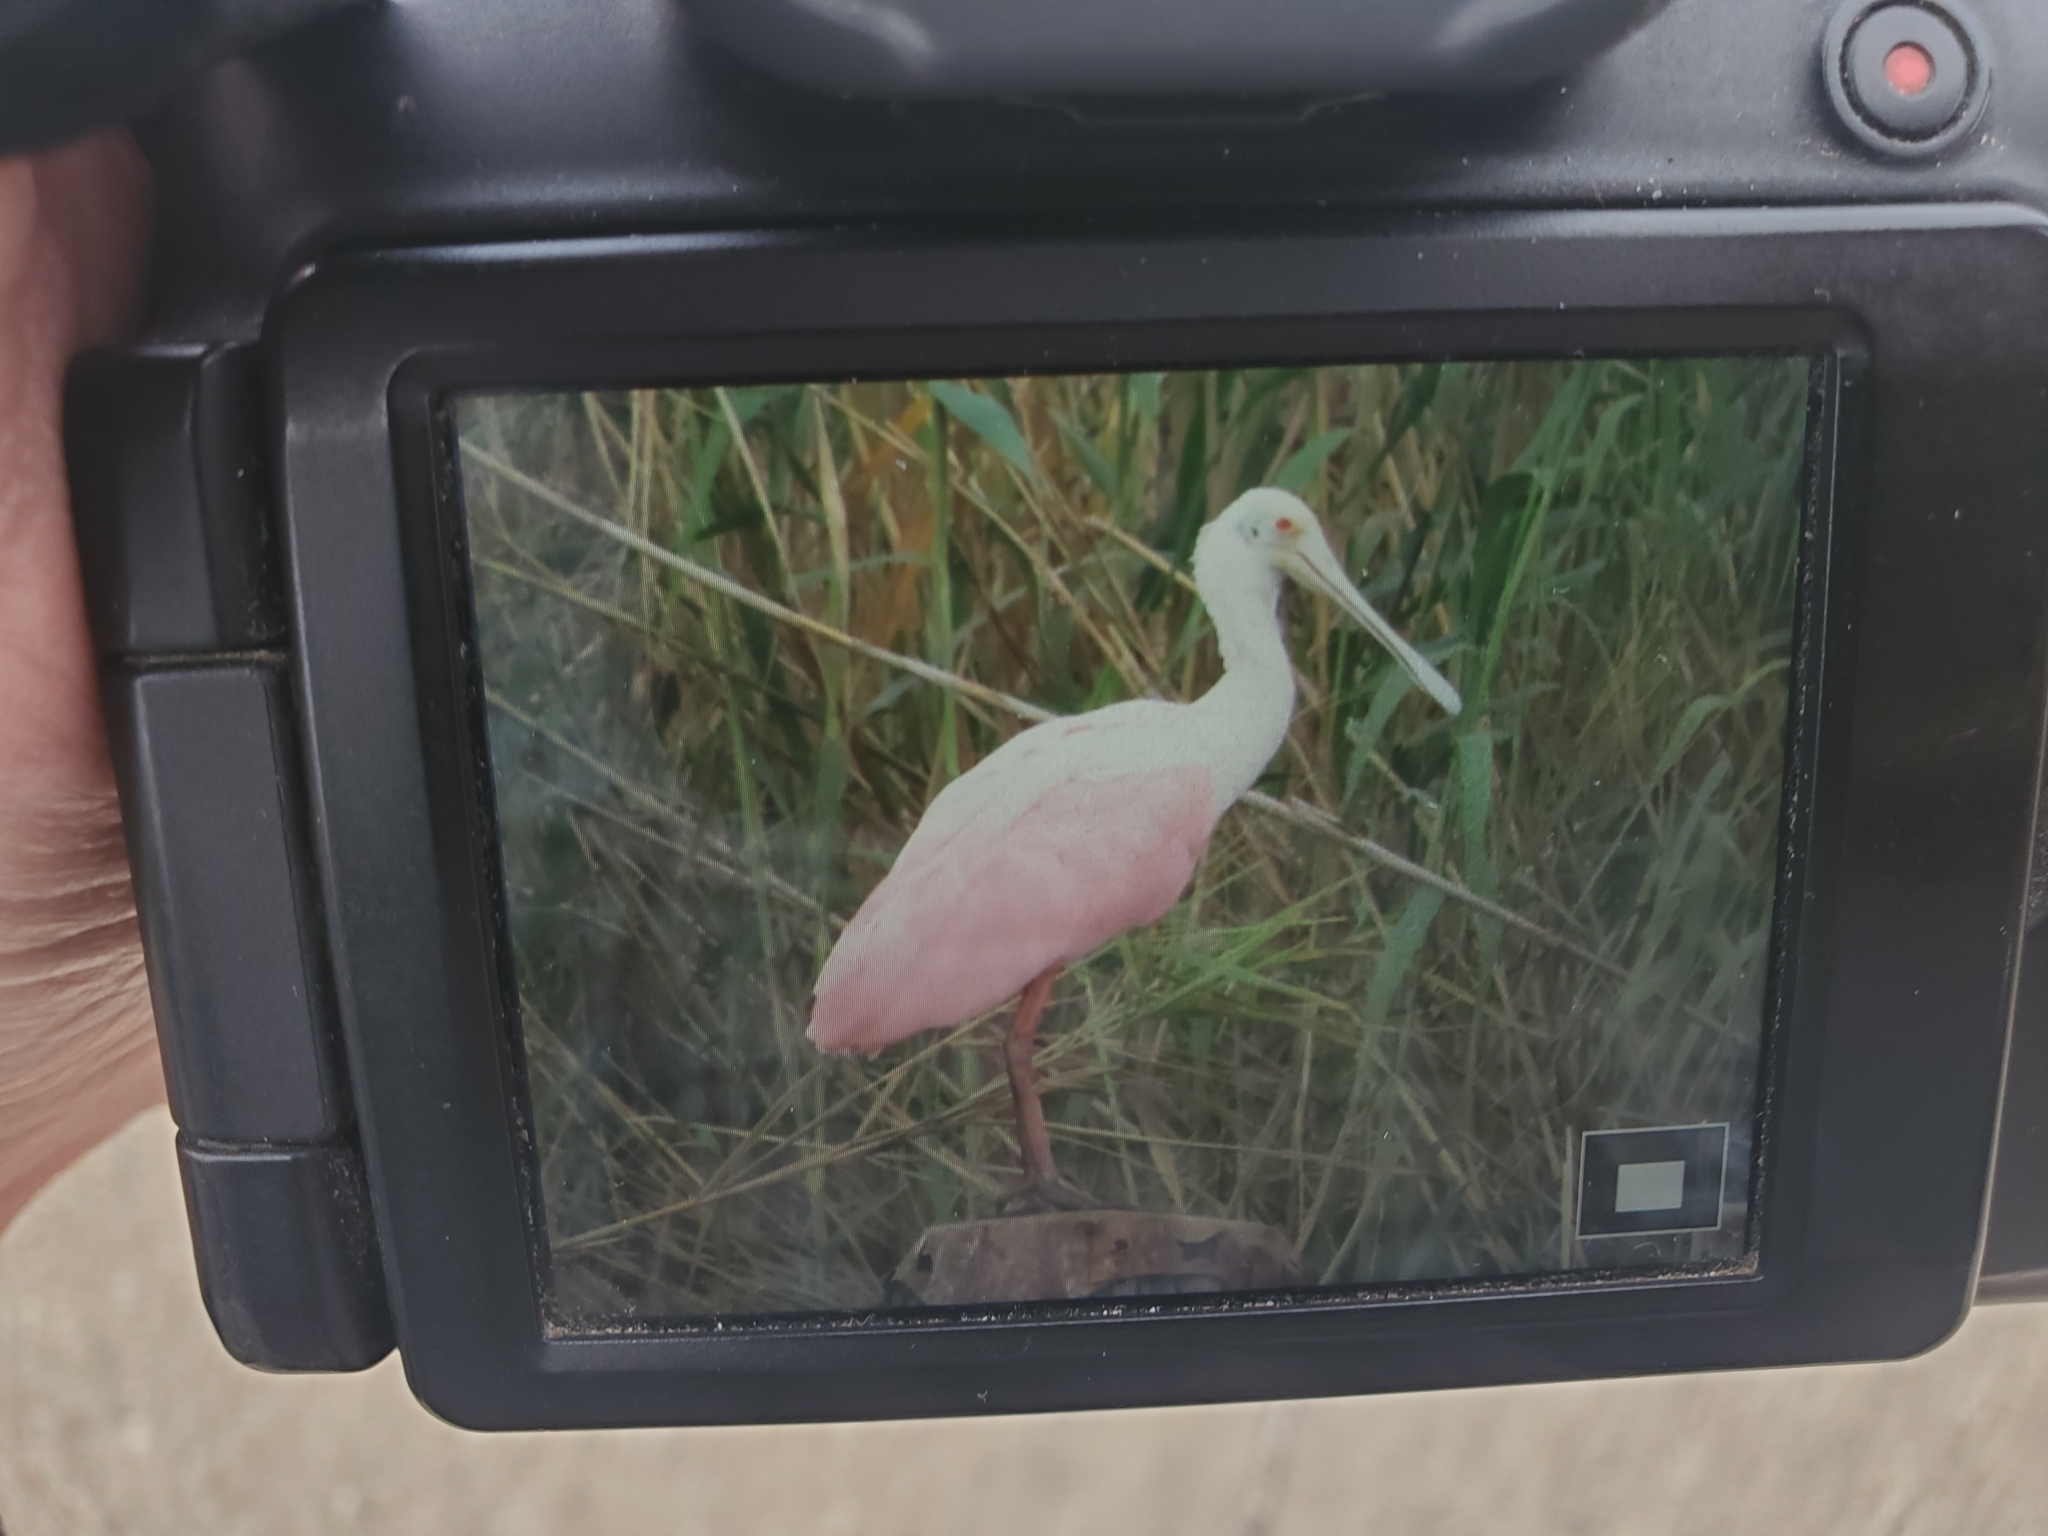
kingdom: Animalia
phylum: Chordata
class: Aves
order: Pelecaniformes
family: Threskiornithidae
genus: Platalea
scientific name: Platalea ajaja
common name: Roseate spoonbill
